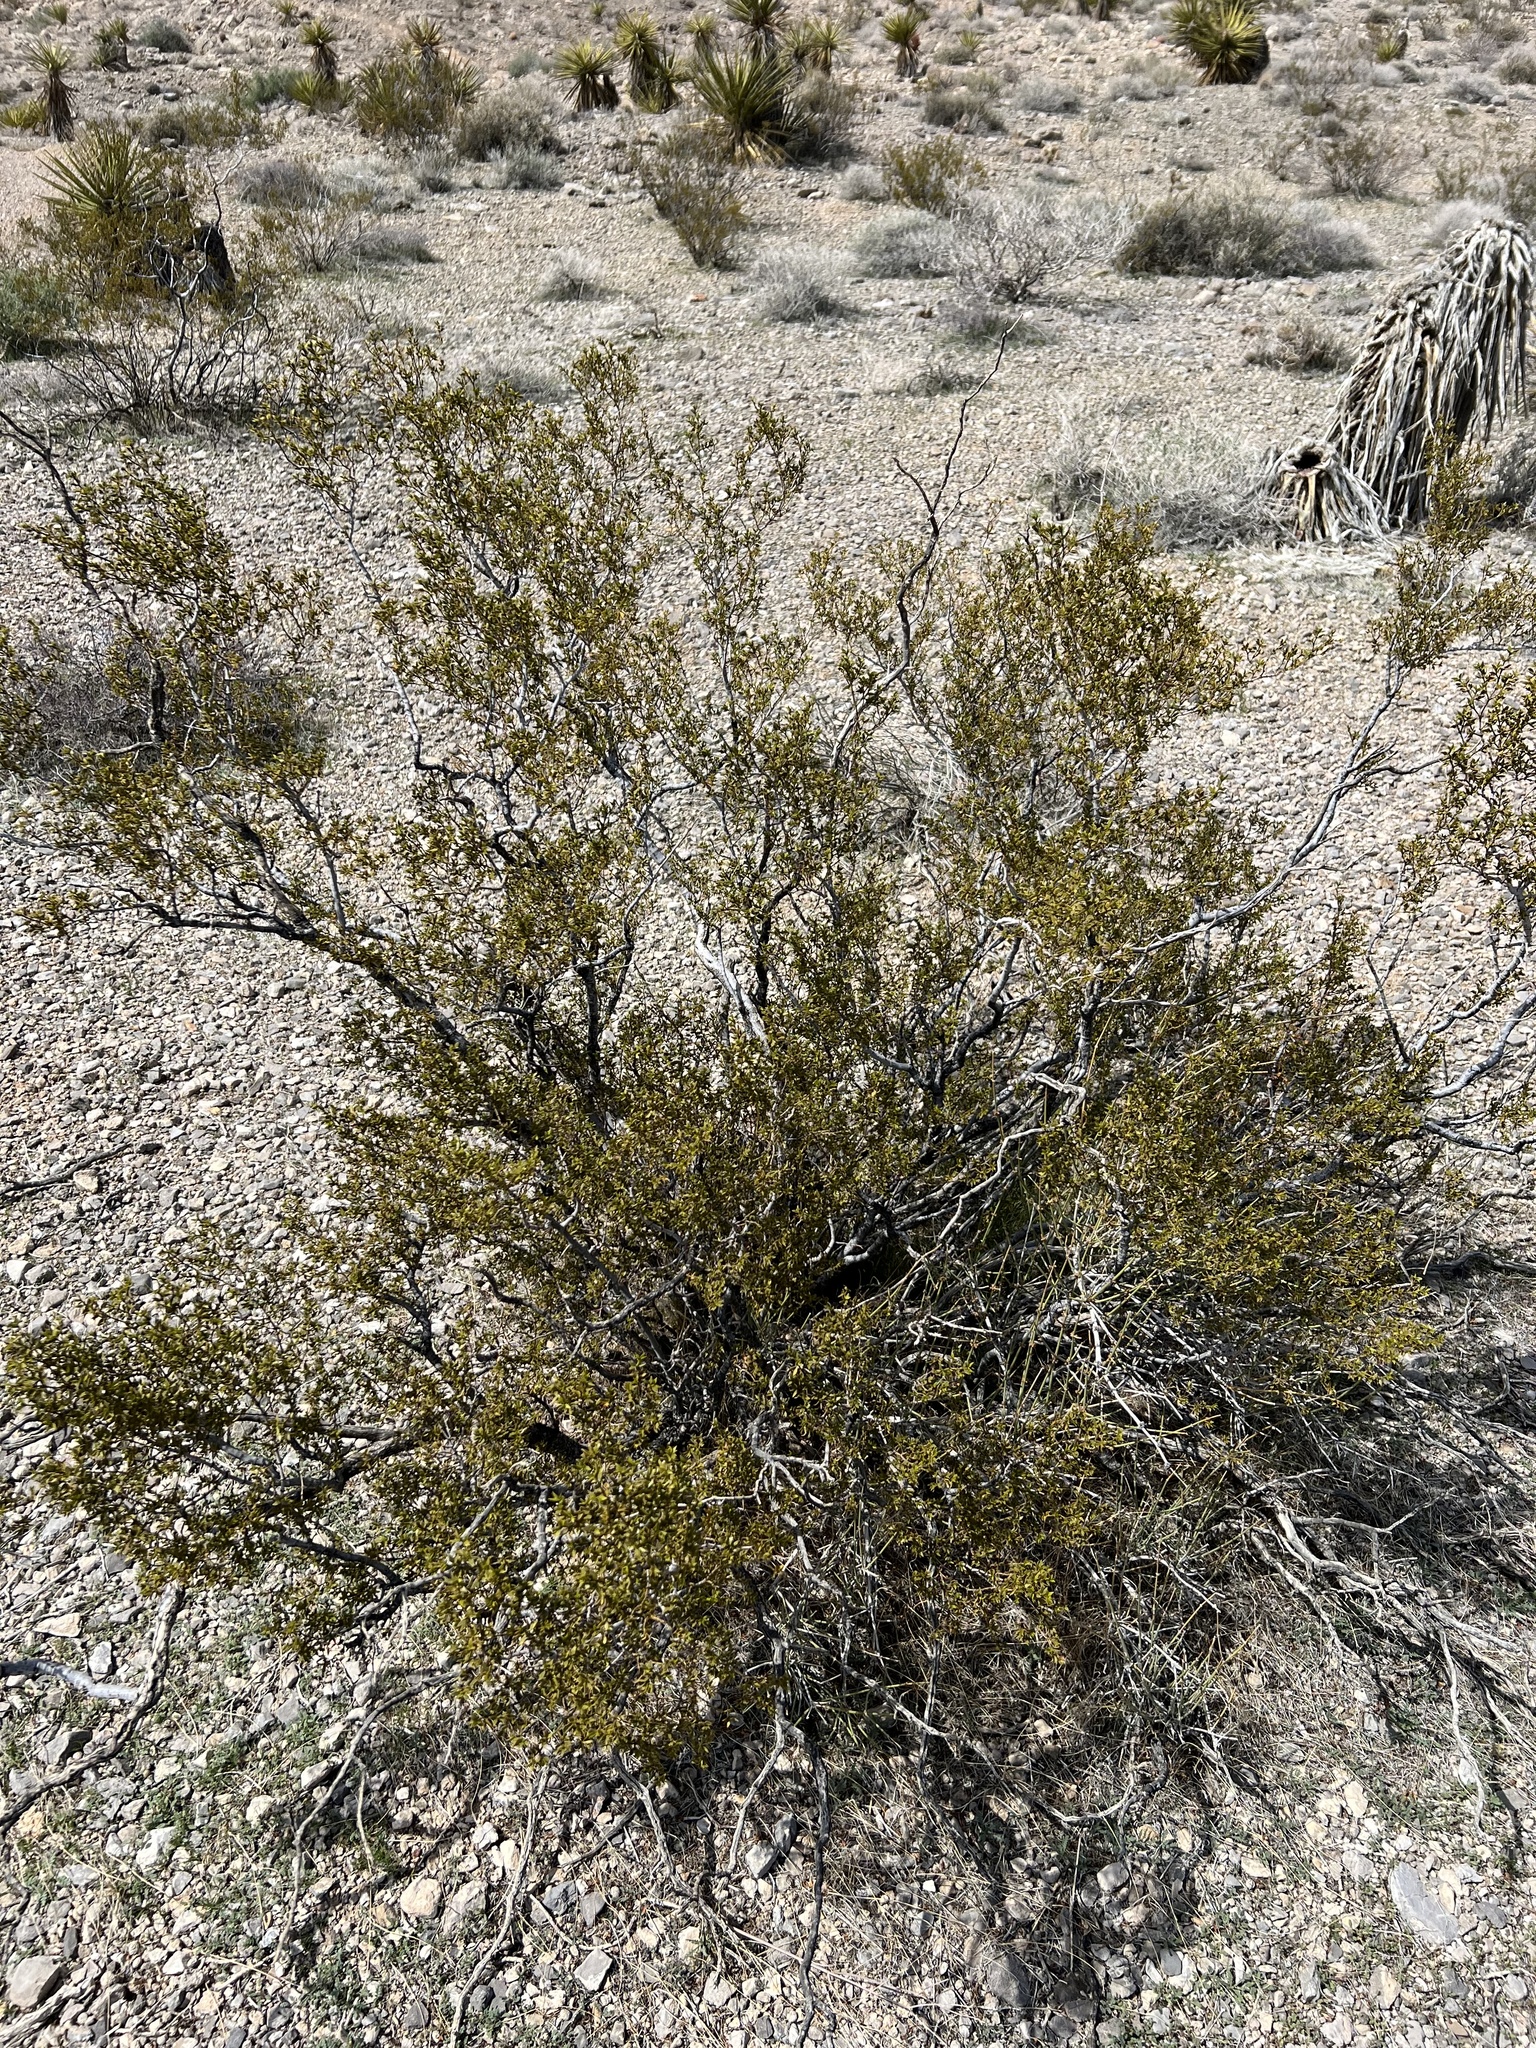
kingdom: Plantae
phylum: Tracheophyta
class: Magnoliopsida
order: Zygophyllales
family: Zygophyllaceae
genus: Larrea
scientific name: Larrea tridentata
